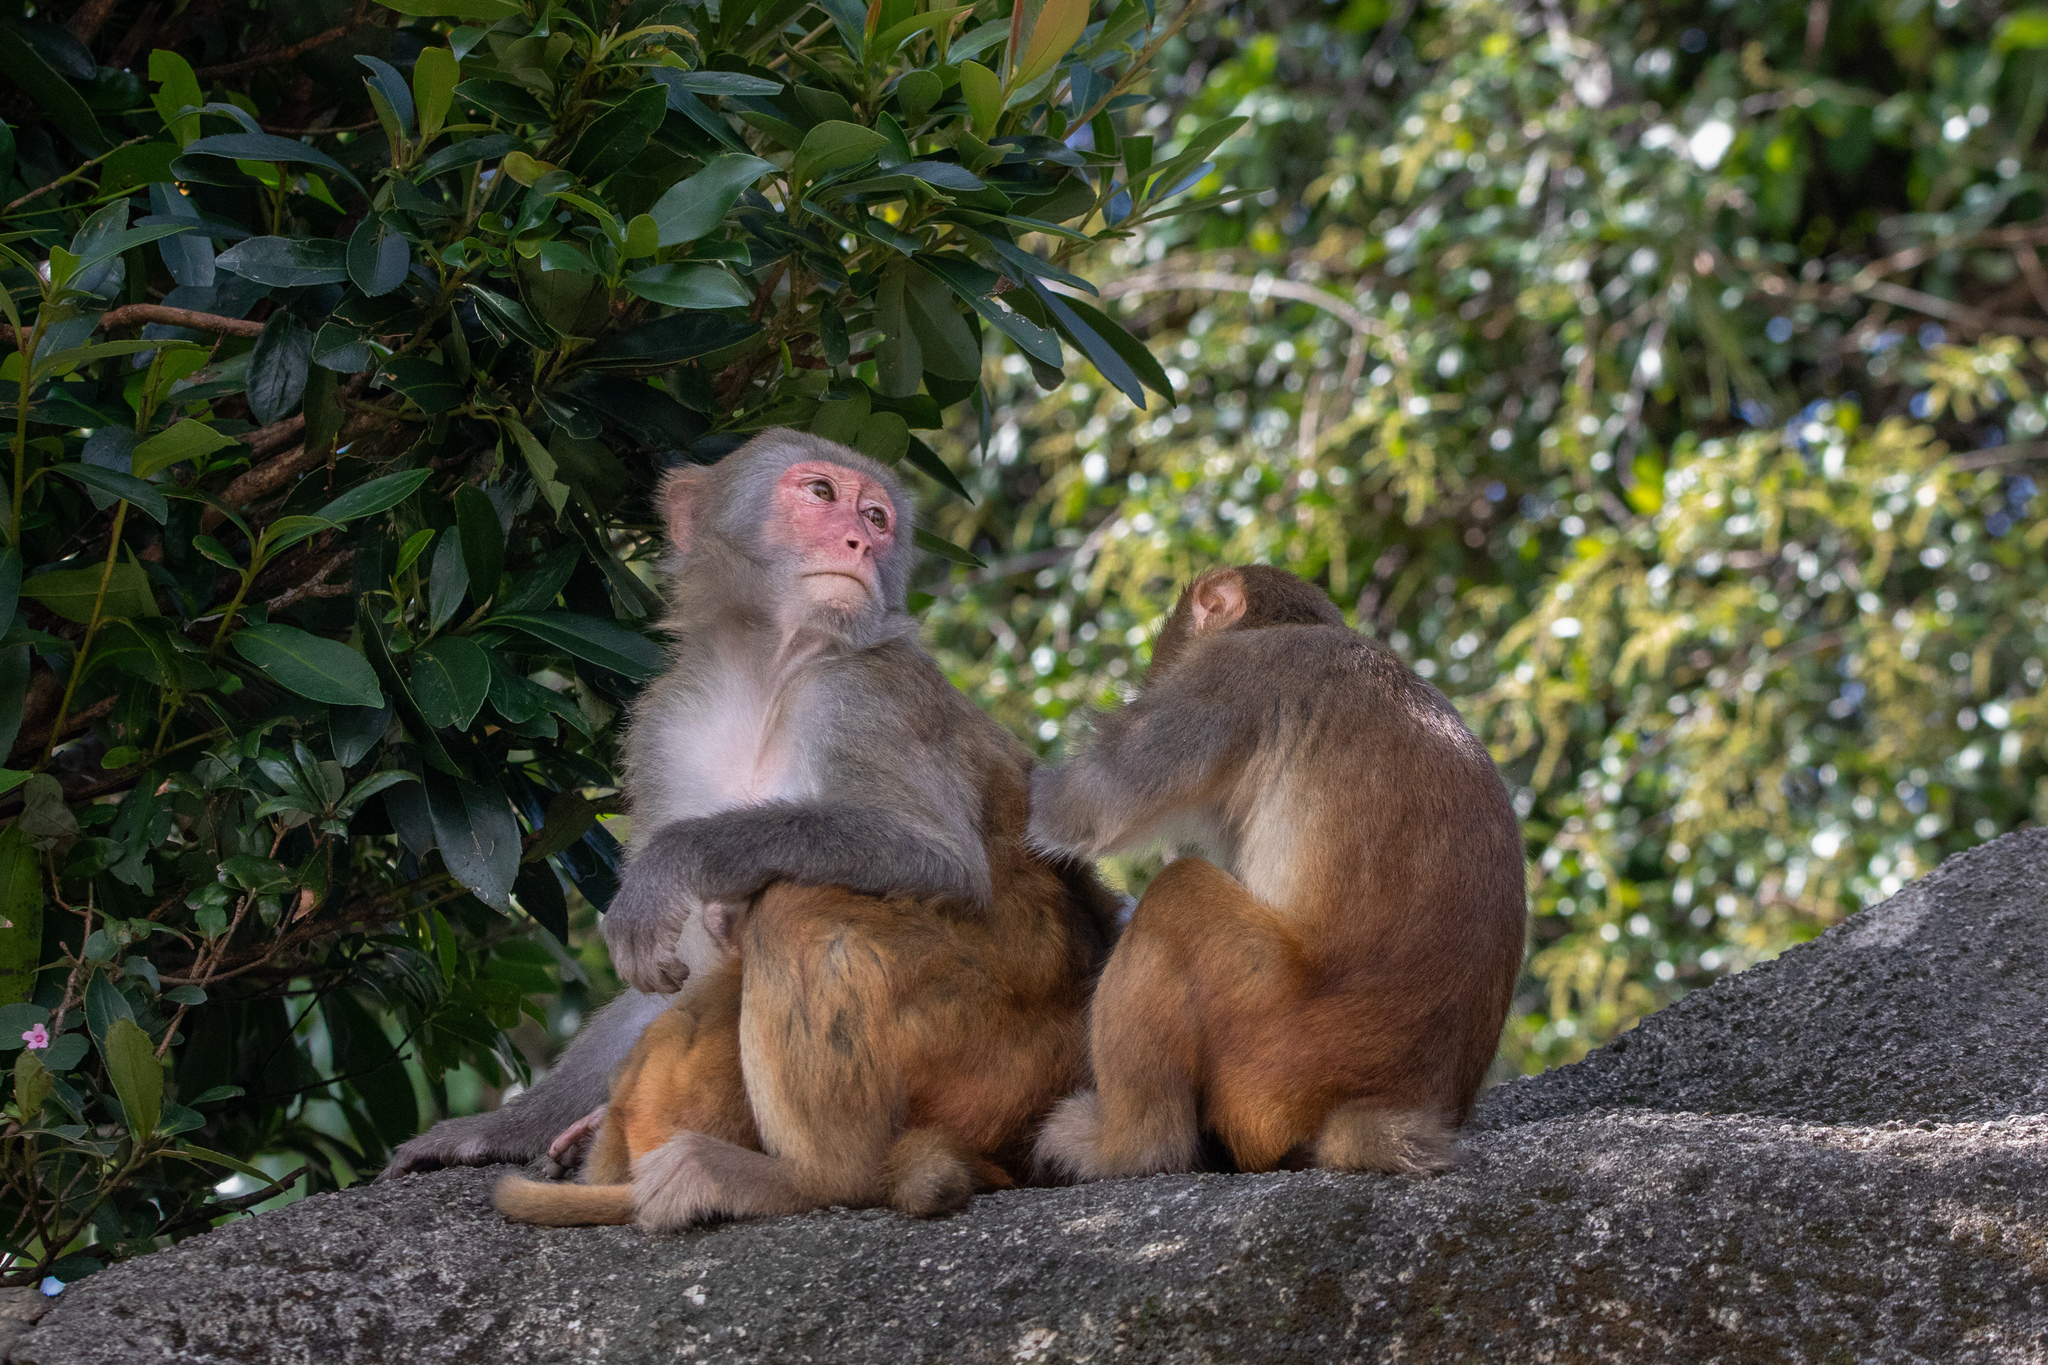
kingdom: Animalia
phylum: Chordata
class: Mammalia
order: Primates
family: Cercopithecidae
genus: Macaca
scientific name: Macaca mulatta
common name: Rhesus monkey
